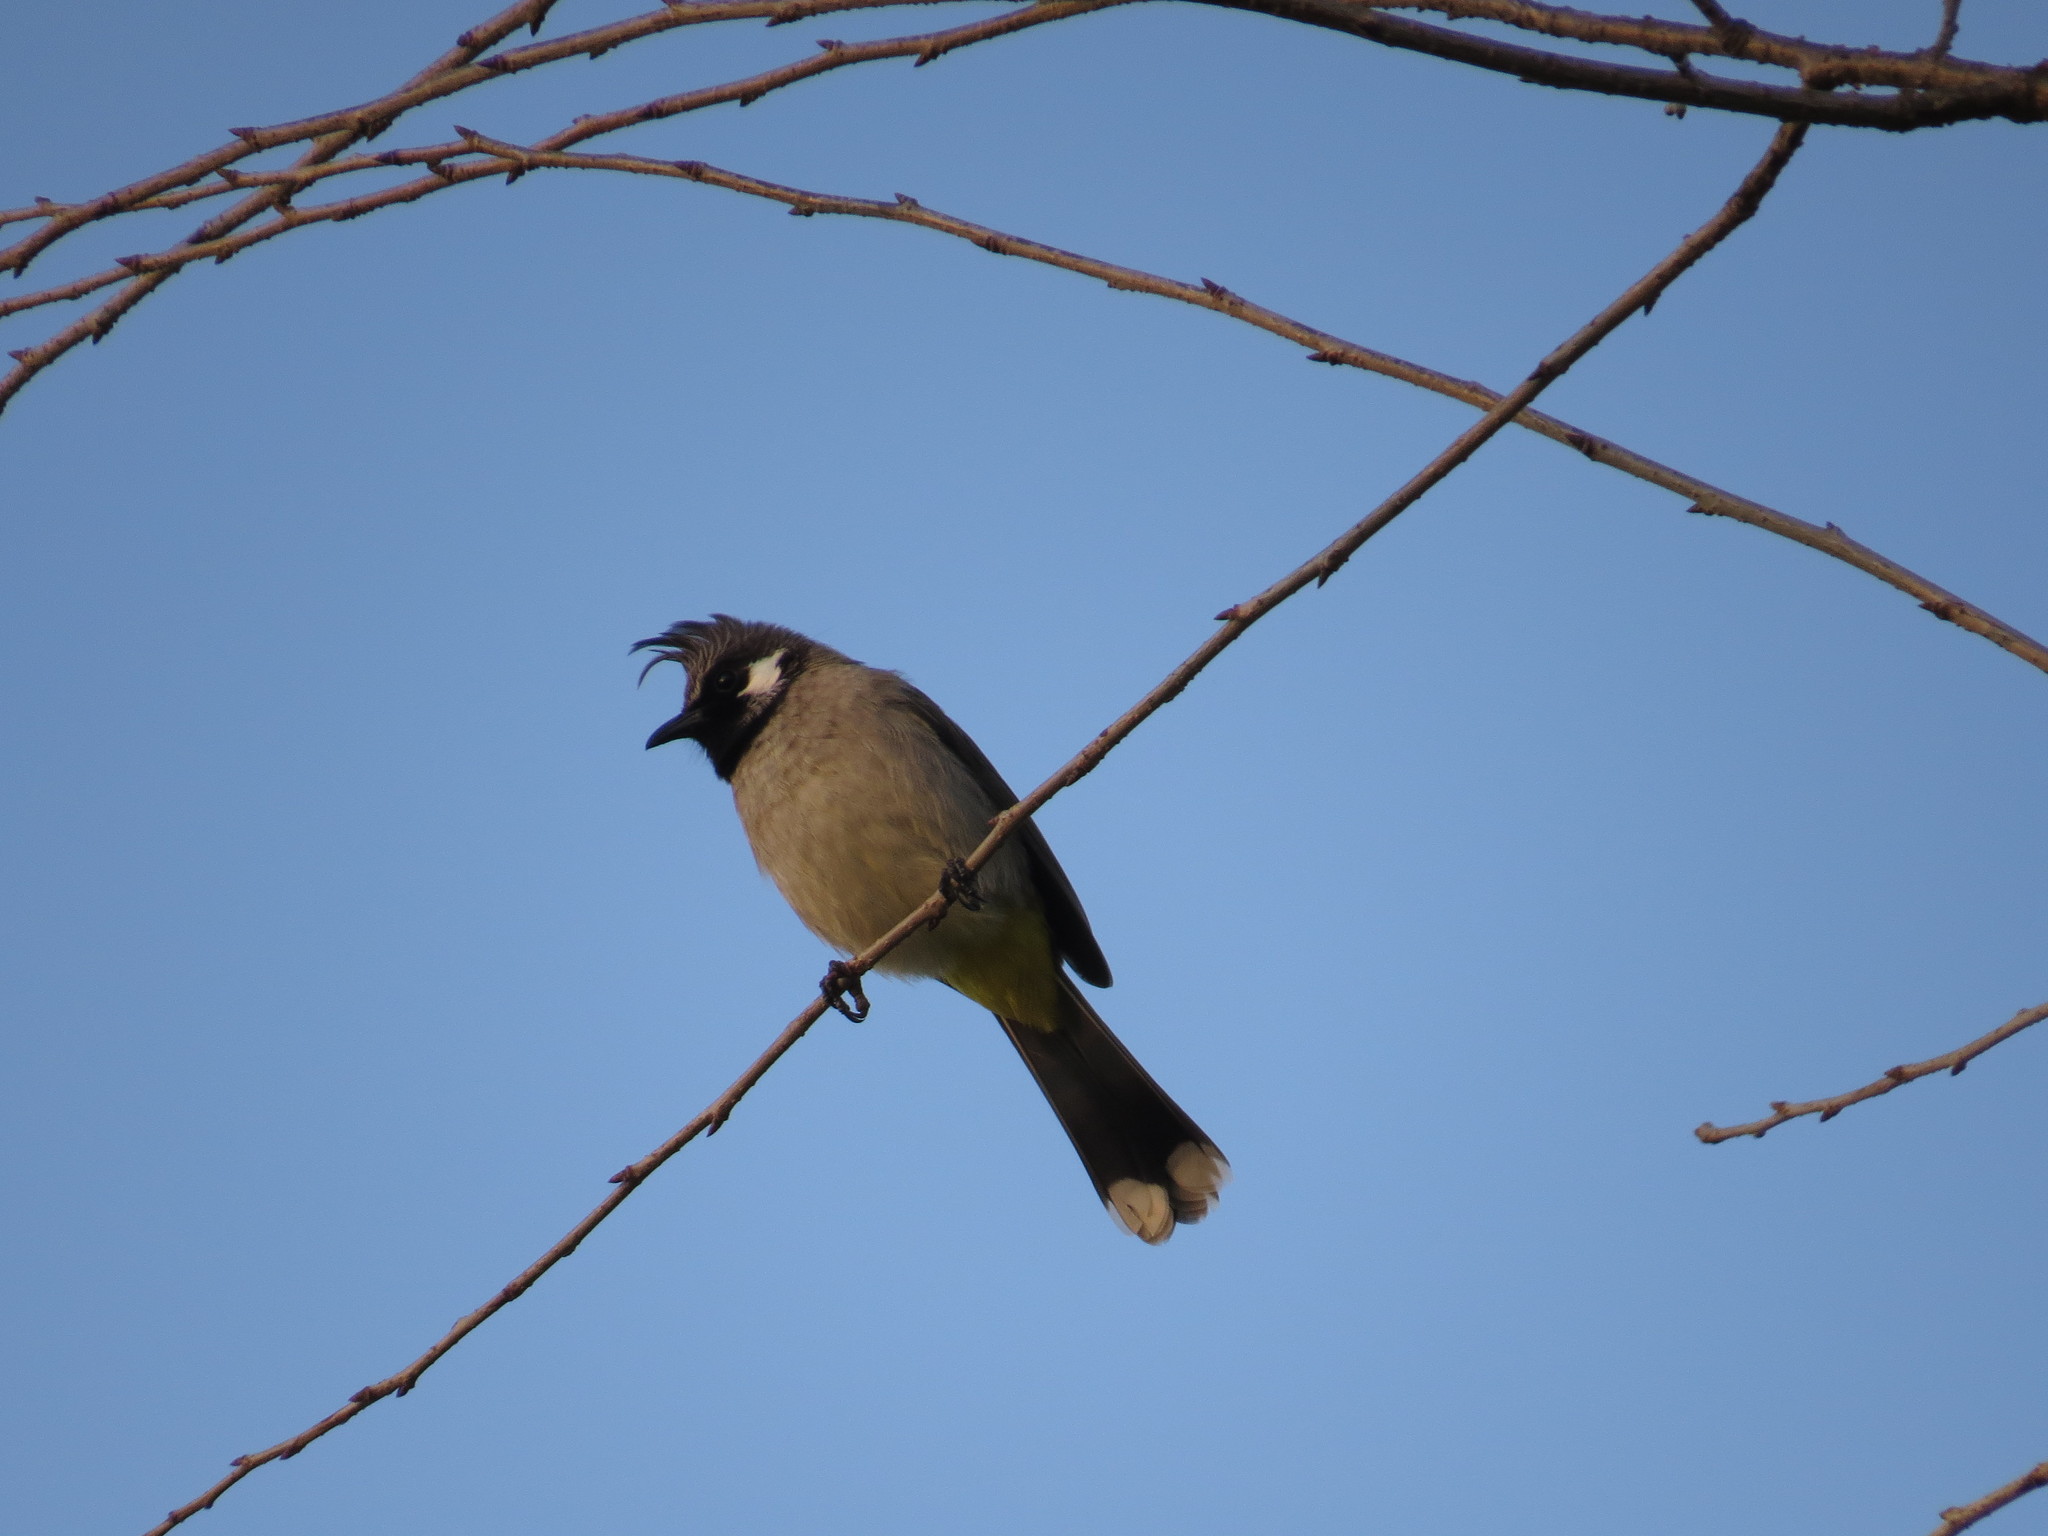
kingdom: Animalia
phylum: Chordata
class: Aves
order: Passeriformes
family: Pycnonotidae
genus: Pycnonotus
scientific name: Pycnonotus leucogenys
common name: Himalayan bulbul
